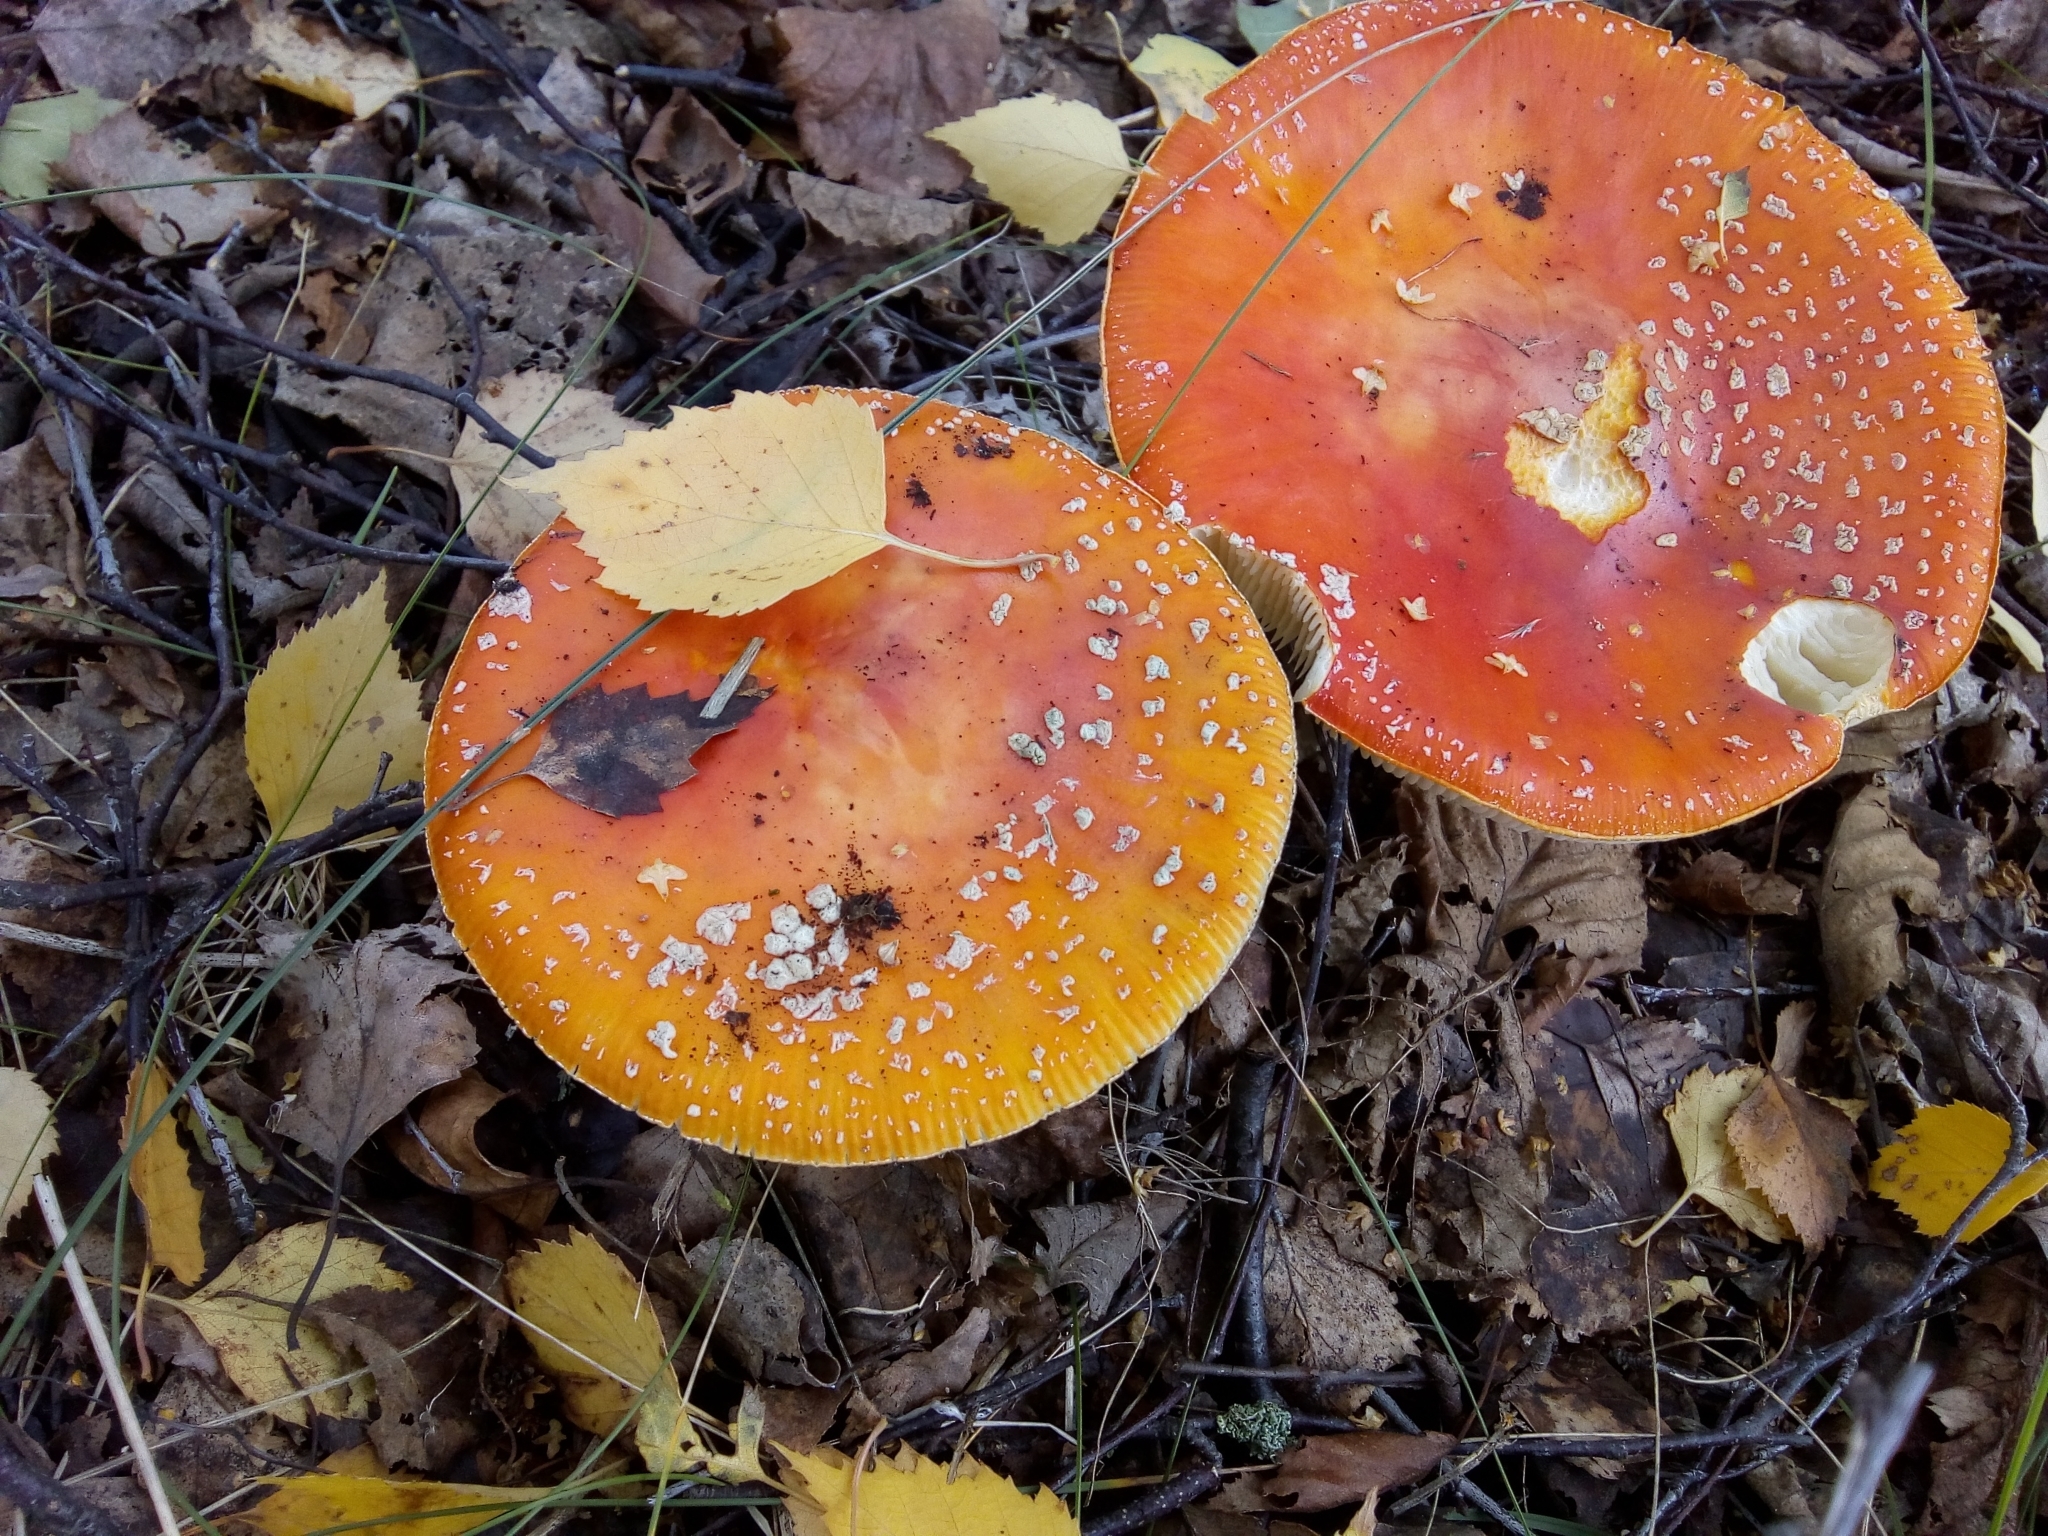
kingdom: Fungi
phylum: Basidiomycota
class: Agaricomycetes
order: Agaricales
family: Amanitaceae
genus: Amanita
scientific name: Amanita muscaria
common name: Fly agaric
